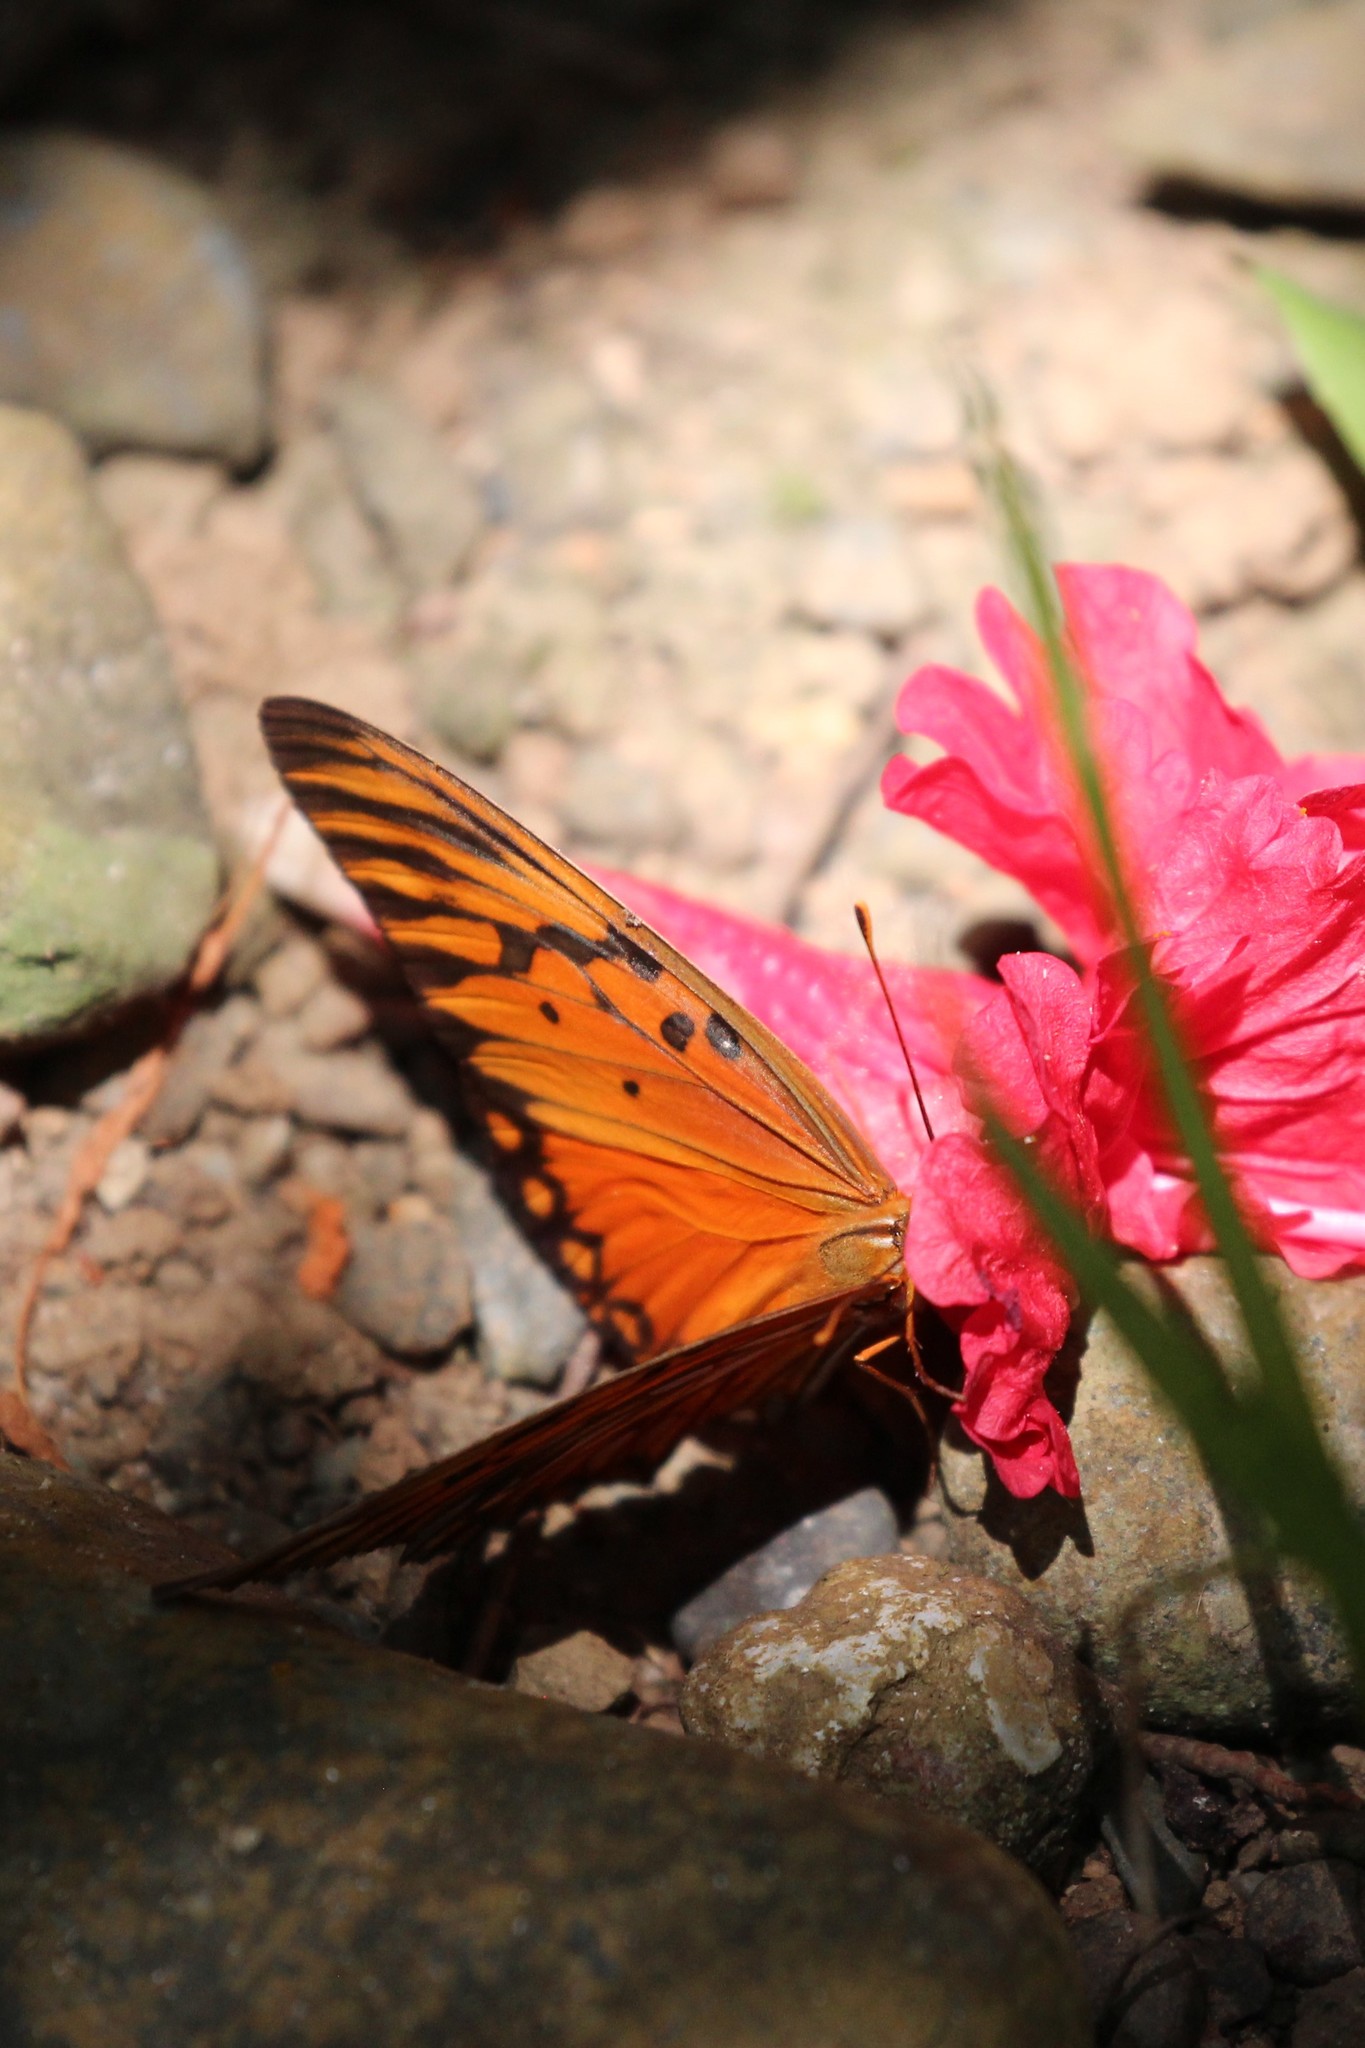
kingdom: Animalia
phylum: Arthropoda
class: Insecta
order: Lepidoptera
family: Nymphalidae
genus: Dione
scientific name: Dione vanillae
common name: Gulf fritillary
